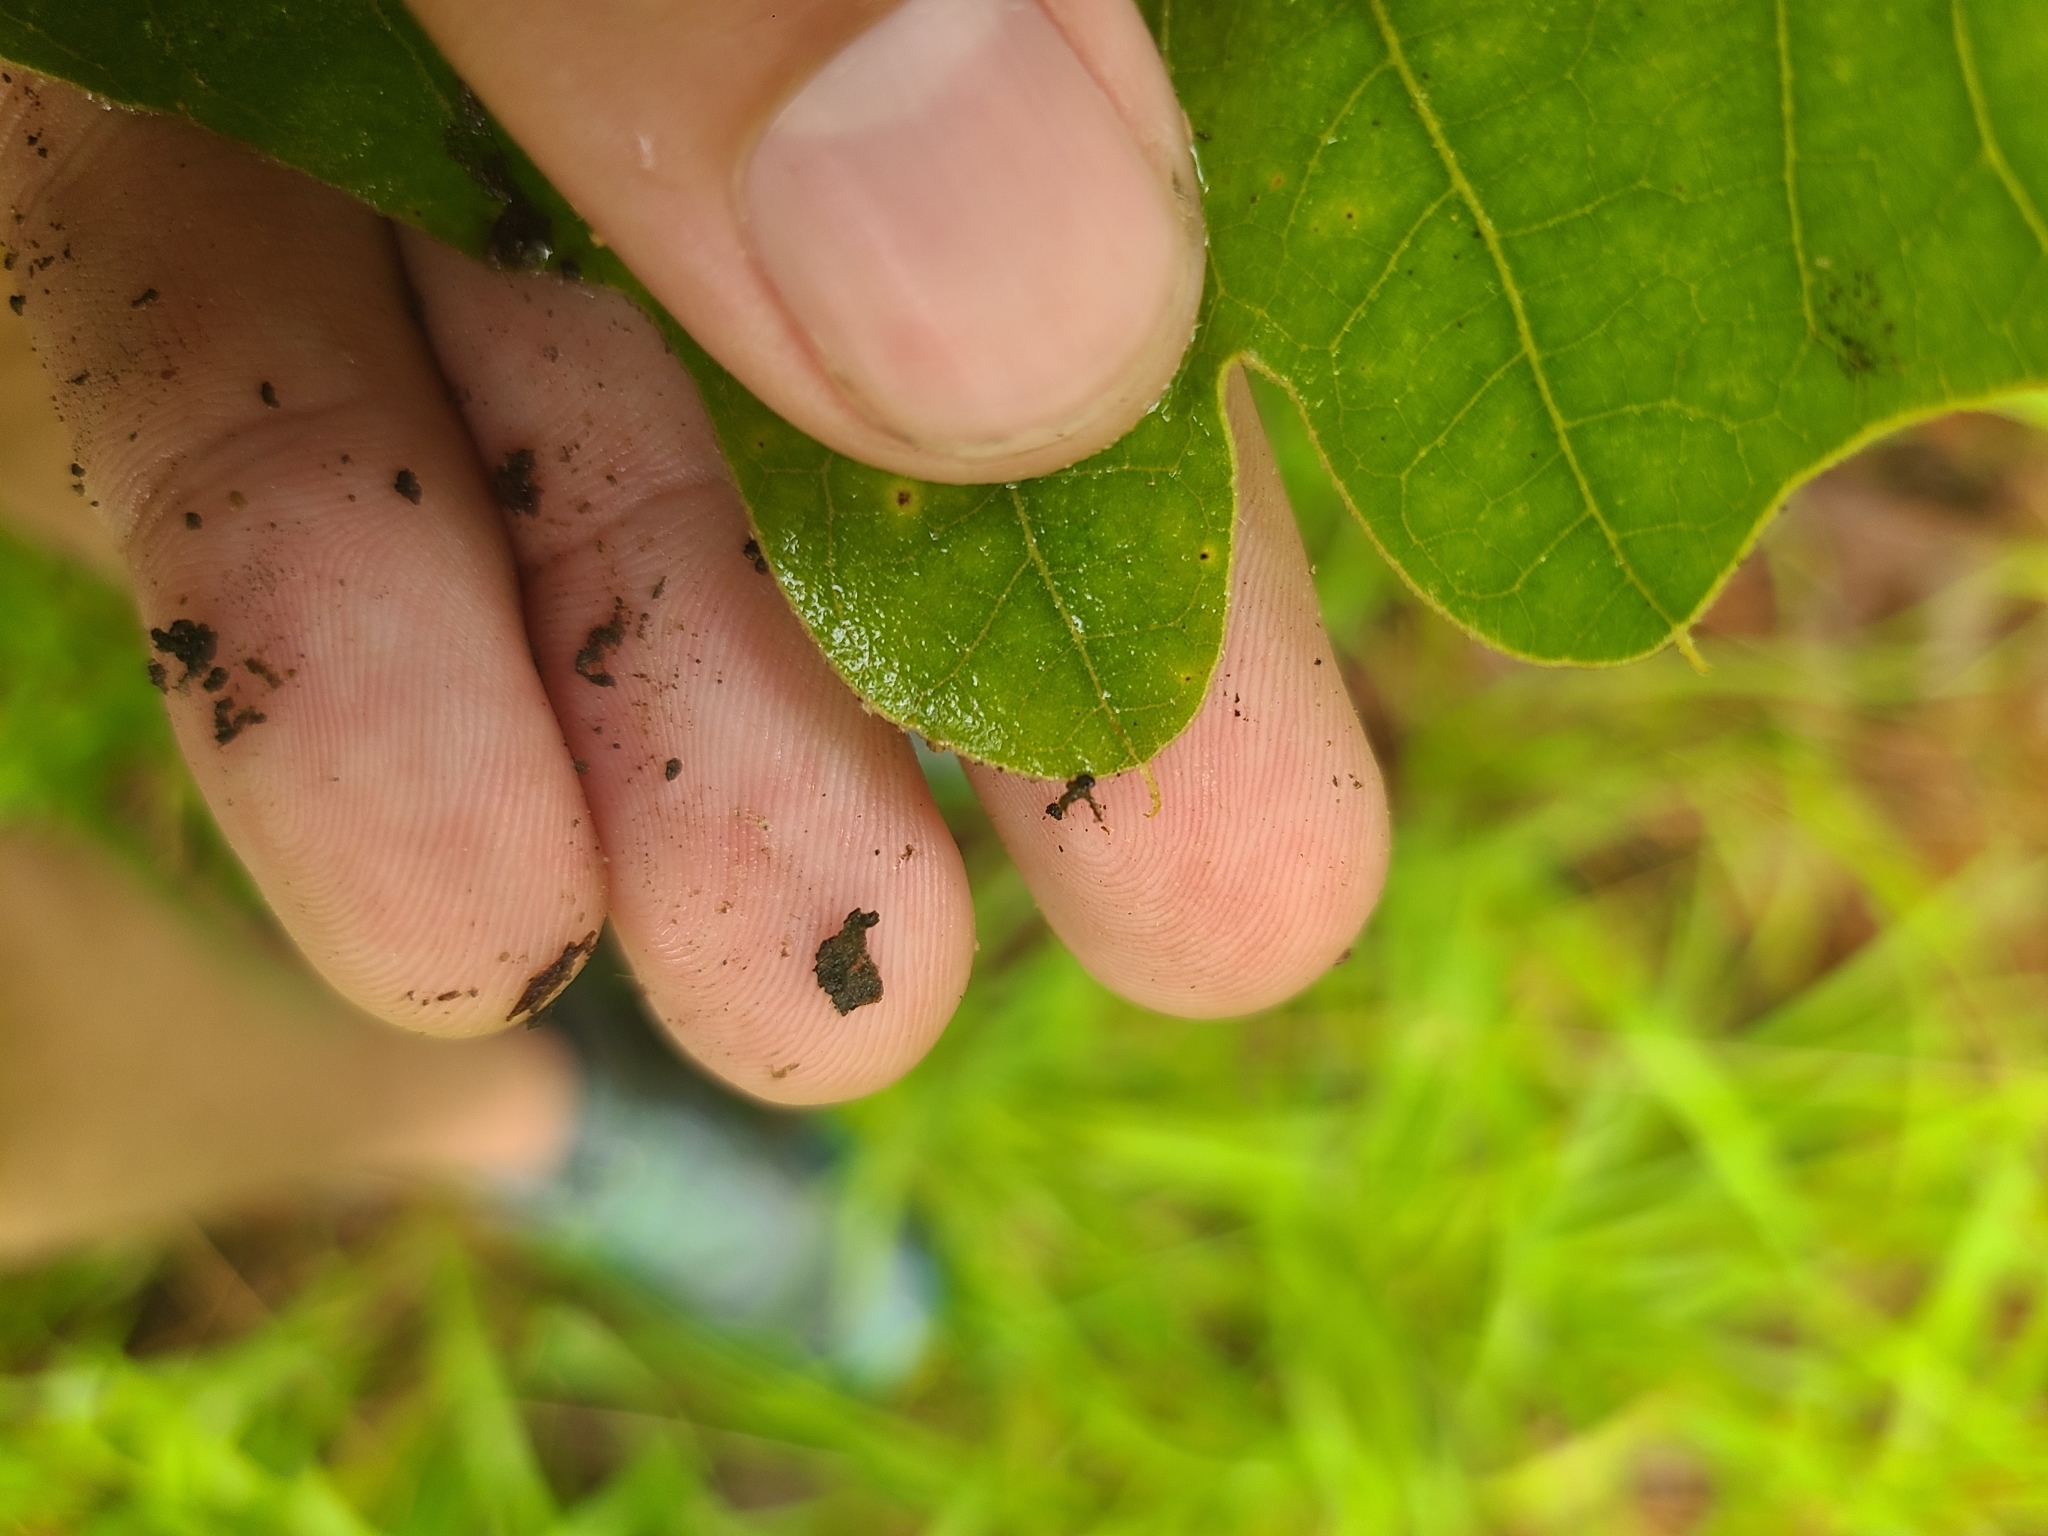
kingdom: Plantae
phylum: Tracheophyta
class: Magnoliopsida
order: Fagales
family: Fagaceae
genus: Quercus
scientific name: Quercus marilandica
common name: Blackjack oak
